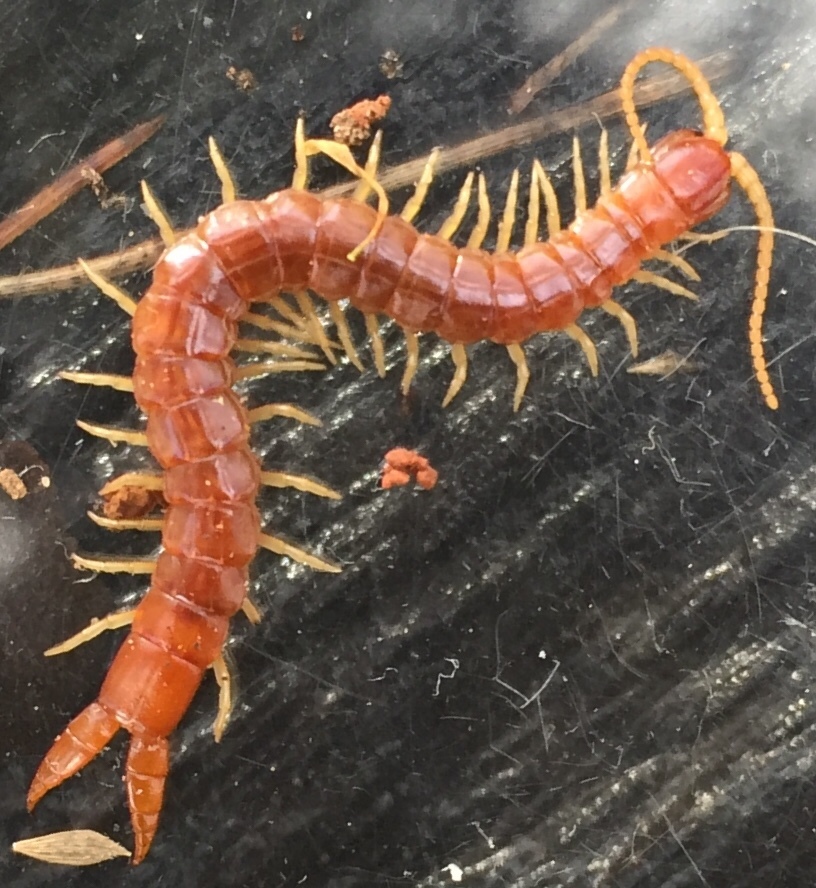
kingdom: Animalia
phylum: Arthropoda
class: Chilopoda
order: Scolopendromorpha
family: Cryptopidae
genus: Theatops
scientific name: Theatops posticus
